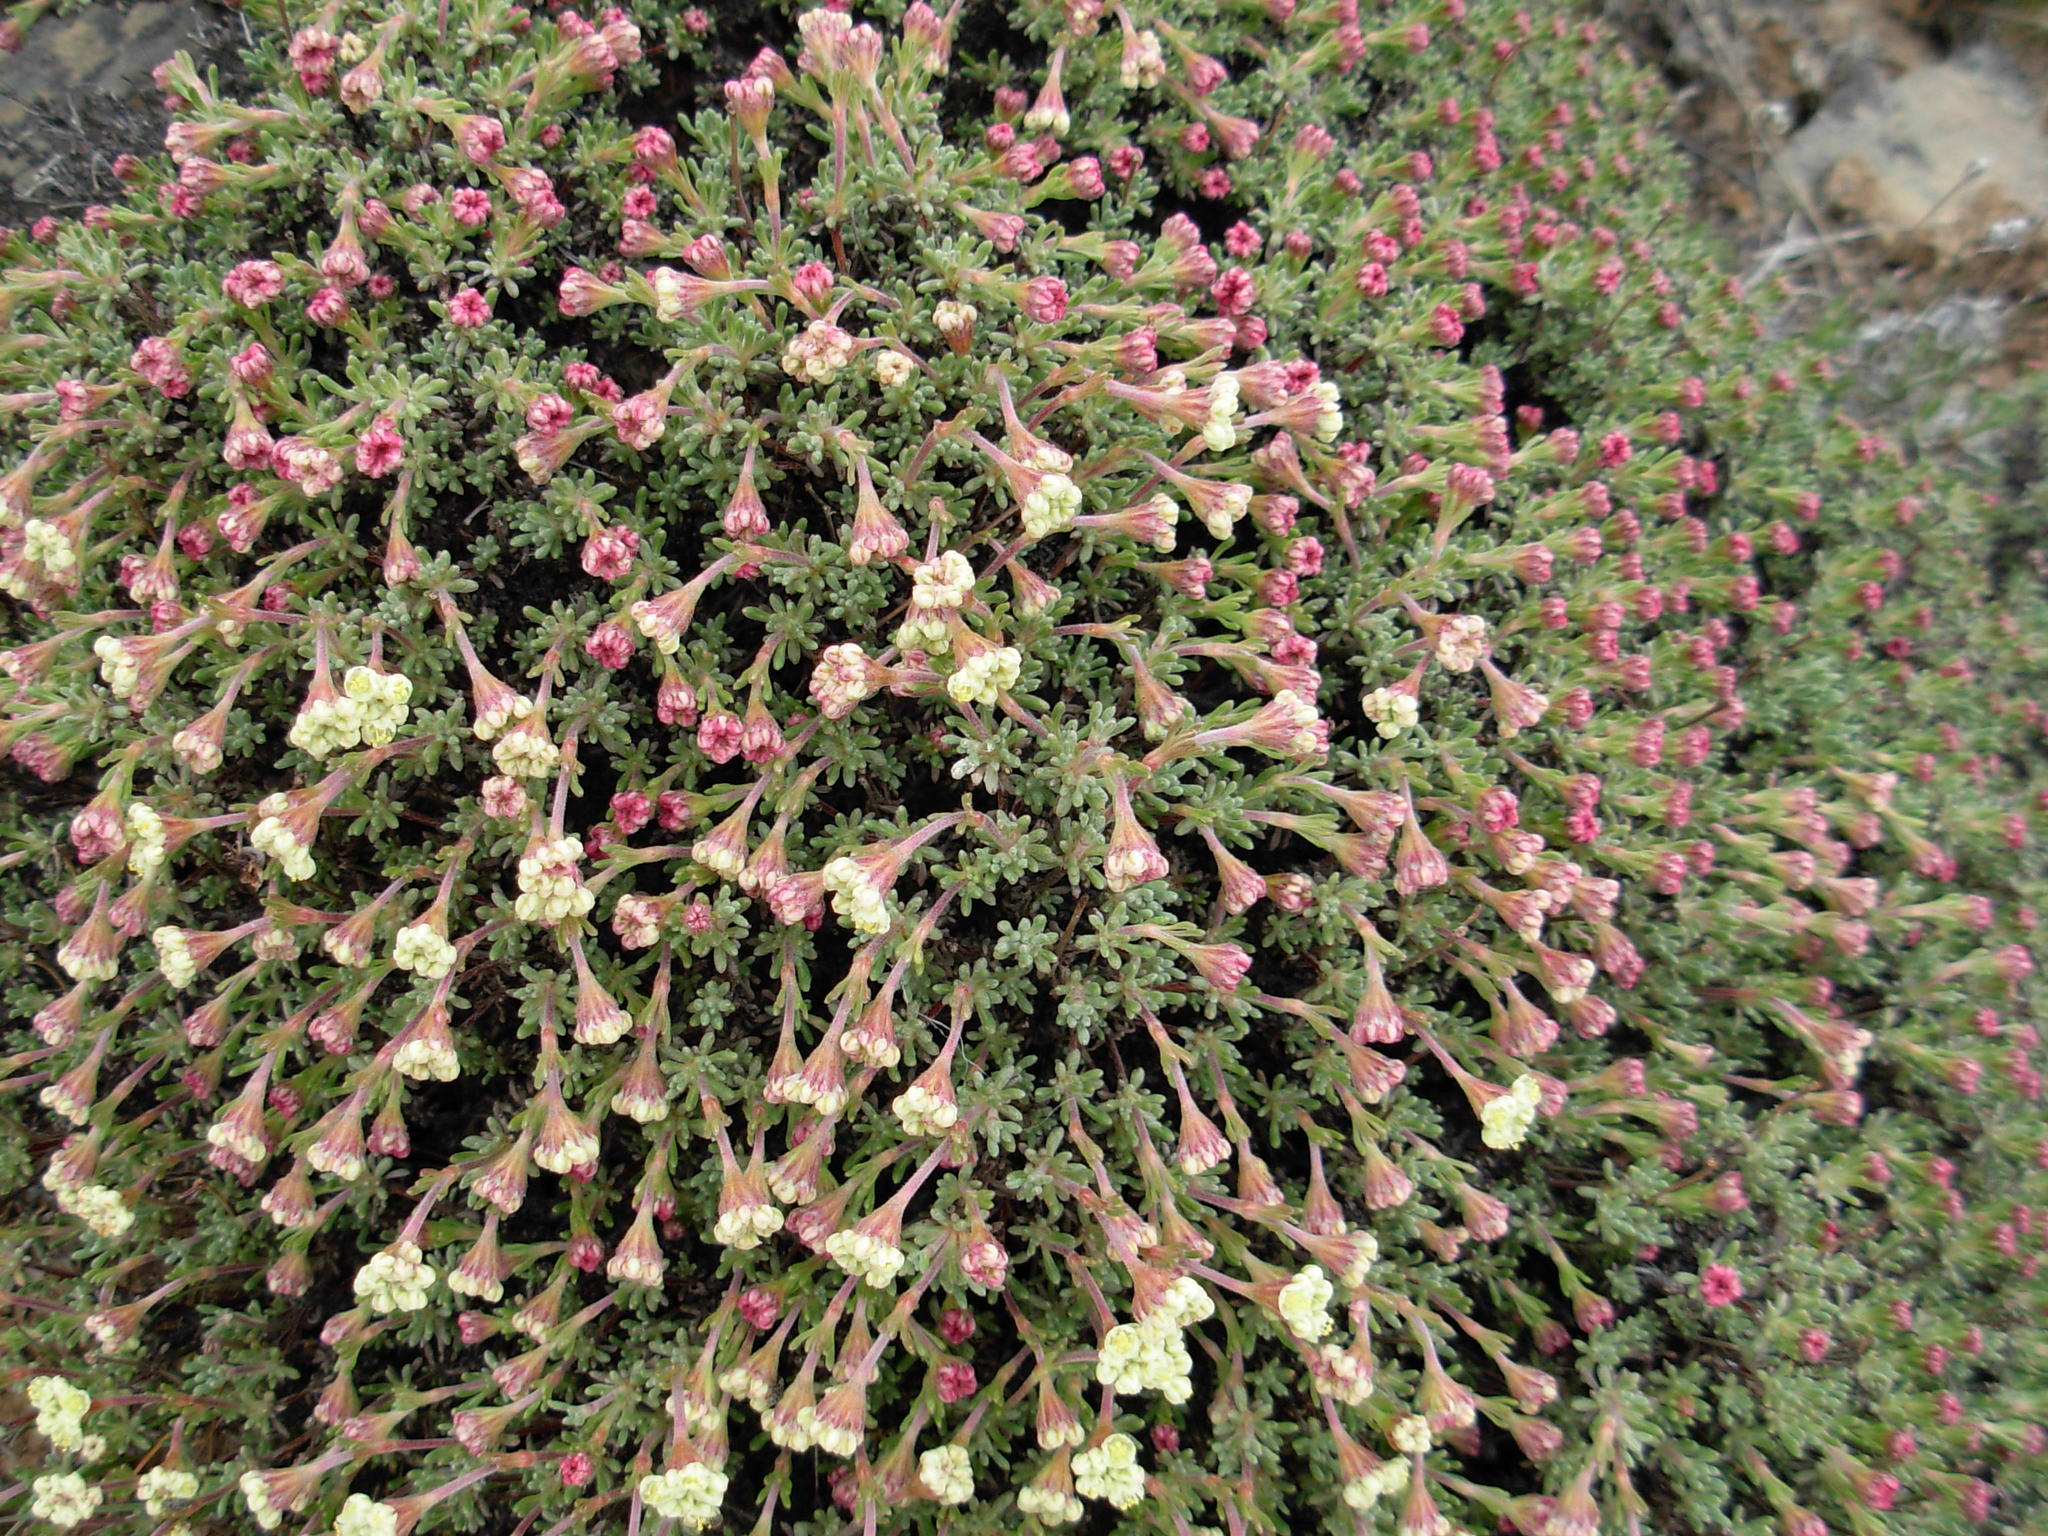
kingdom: Plantae
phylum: Tracheophyta
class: Magnoliopsida
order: Caryophyllales
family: Polygonaceae
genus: Eriogonum
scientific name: Eriogonum thymoides
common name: Thyme-leaf wild buckwheat
